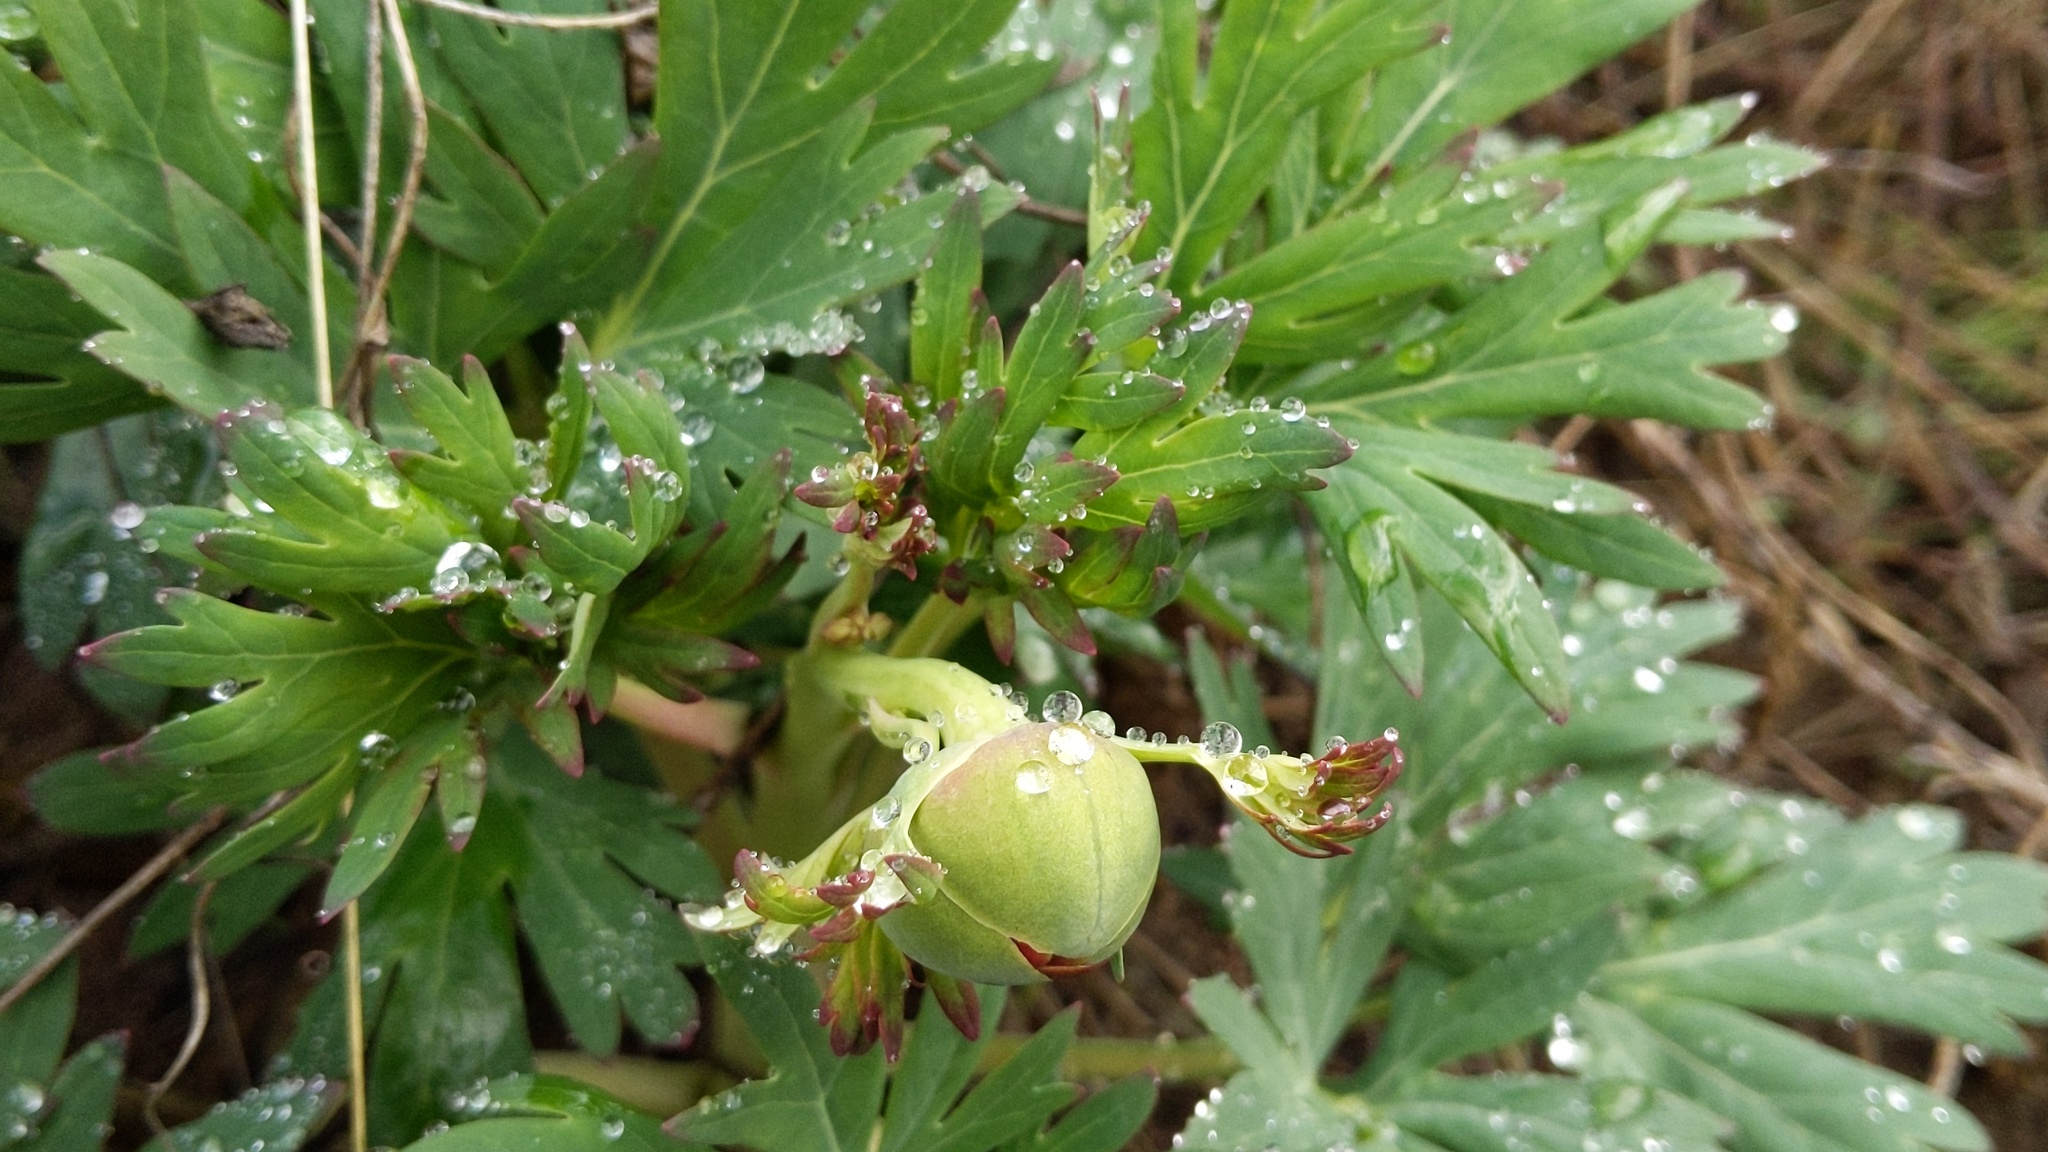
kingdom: Plantae
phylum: Tracheophyta
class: Magnoliopsida
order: Saxifragales
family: Paeoniaceae
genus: Paeonia
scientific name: Paeonia californica
